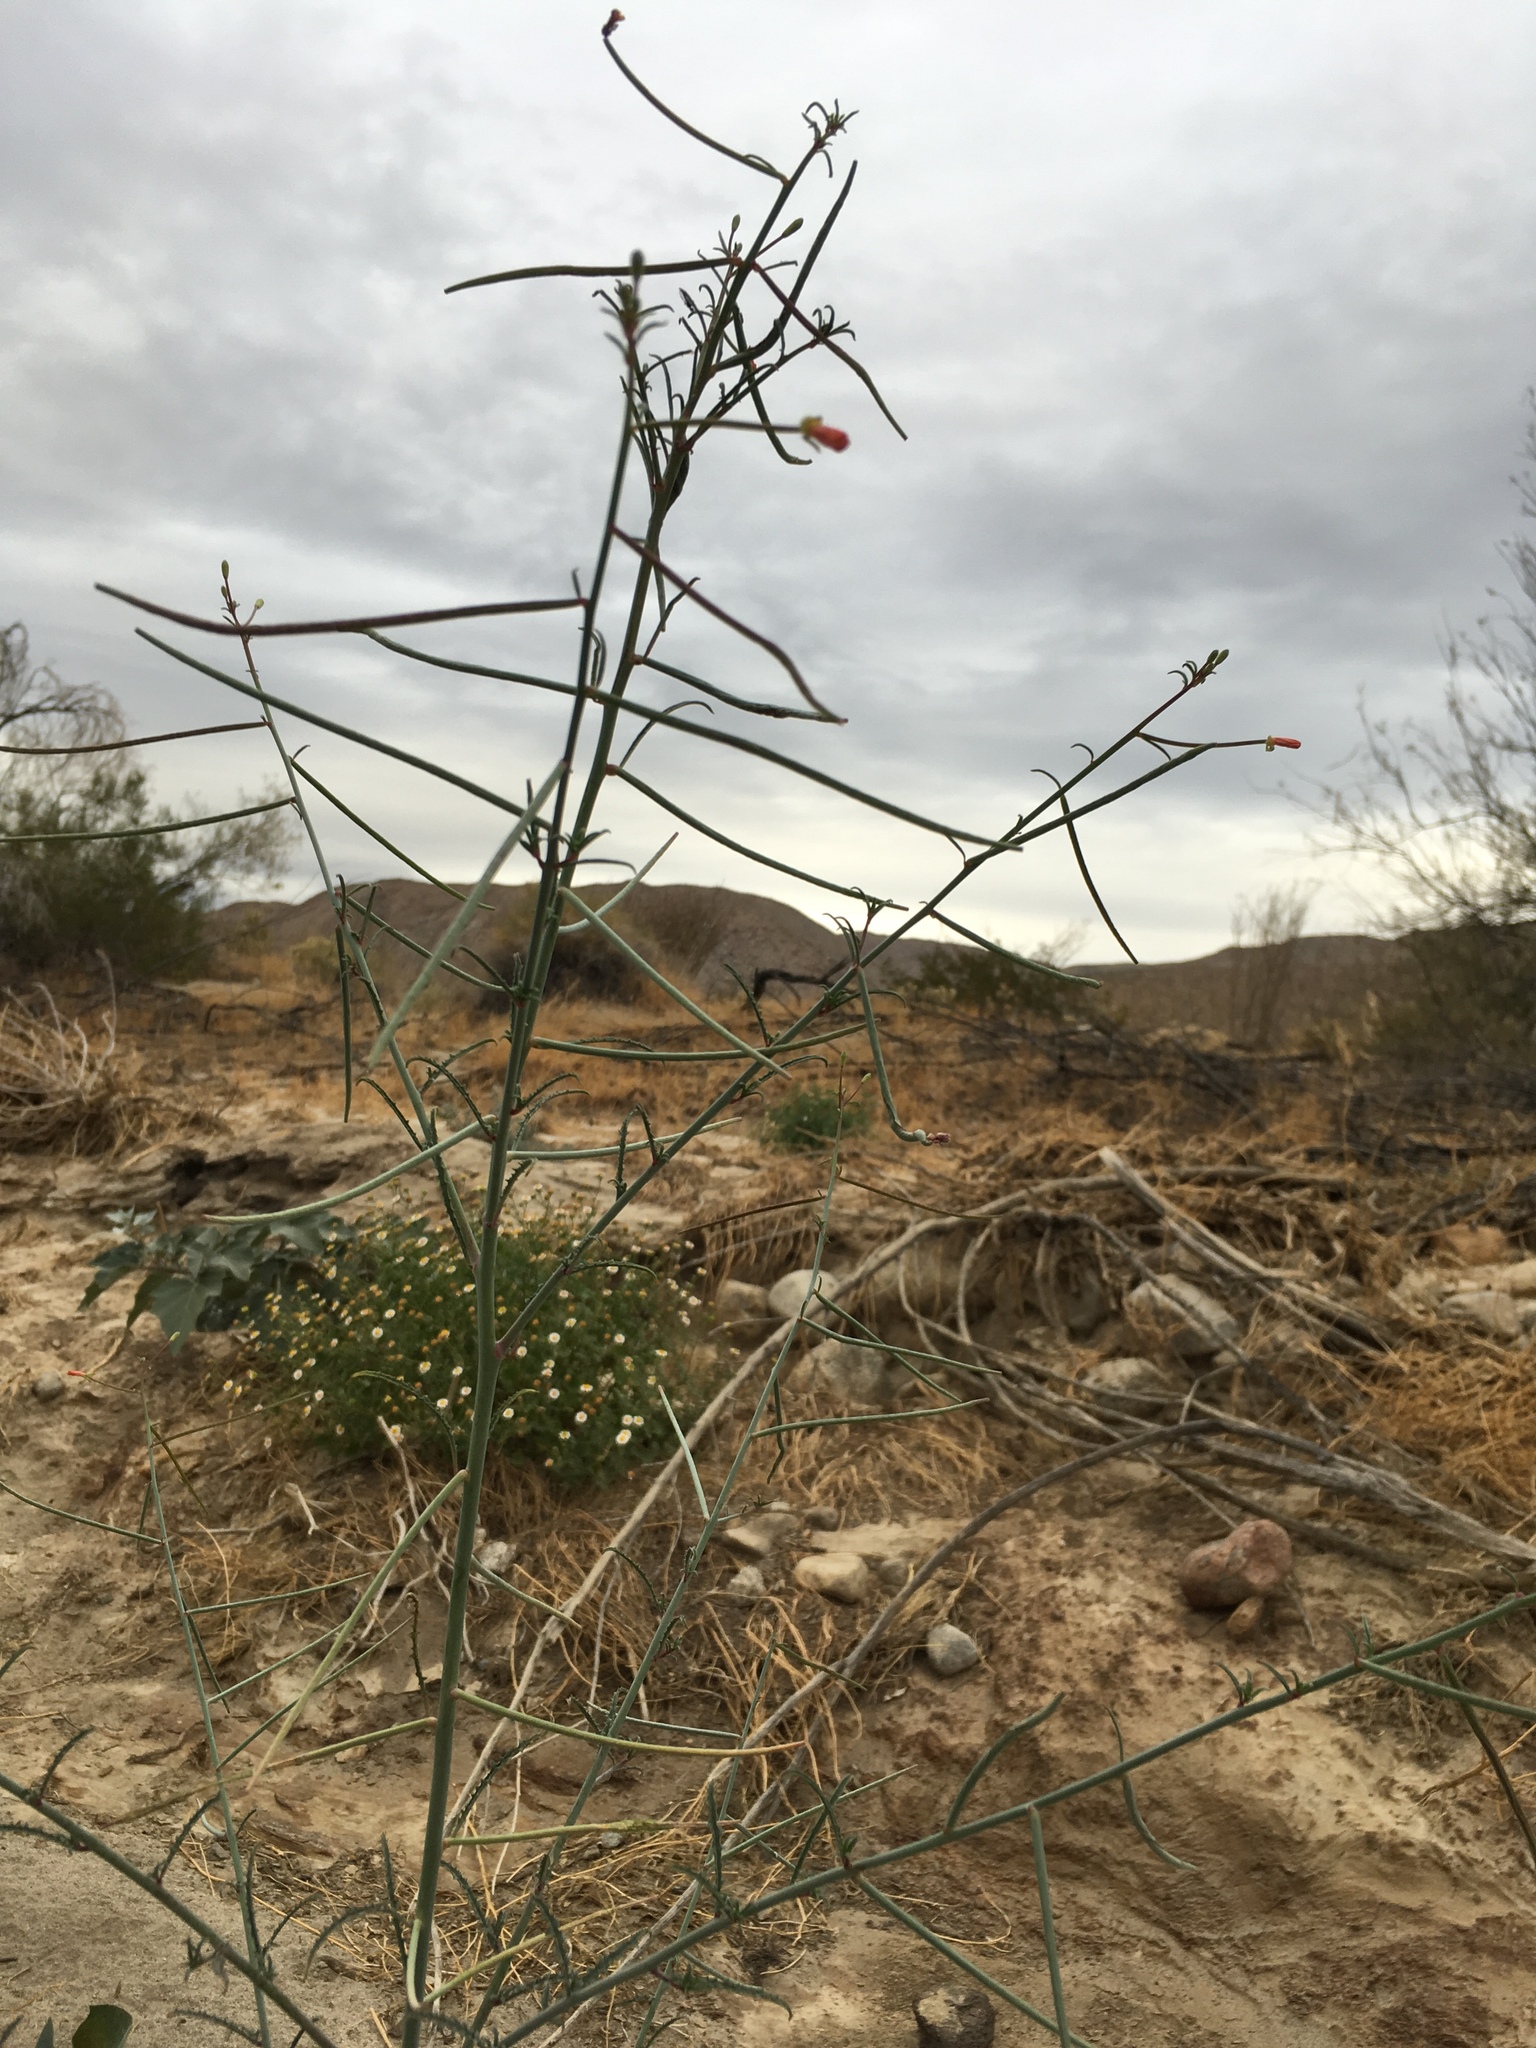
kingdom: Plantae
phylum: Tracheophyta
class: Magnoliopsida
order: Myrtales
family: Onagraceae
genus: Eulobus
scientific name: Eulobus californicus
